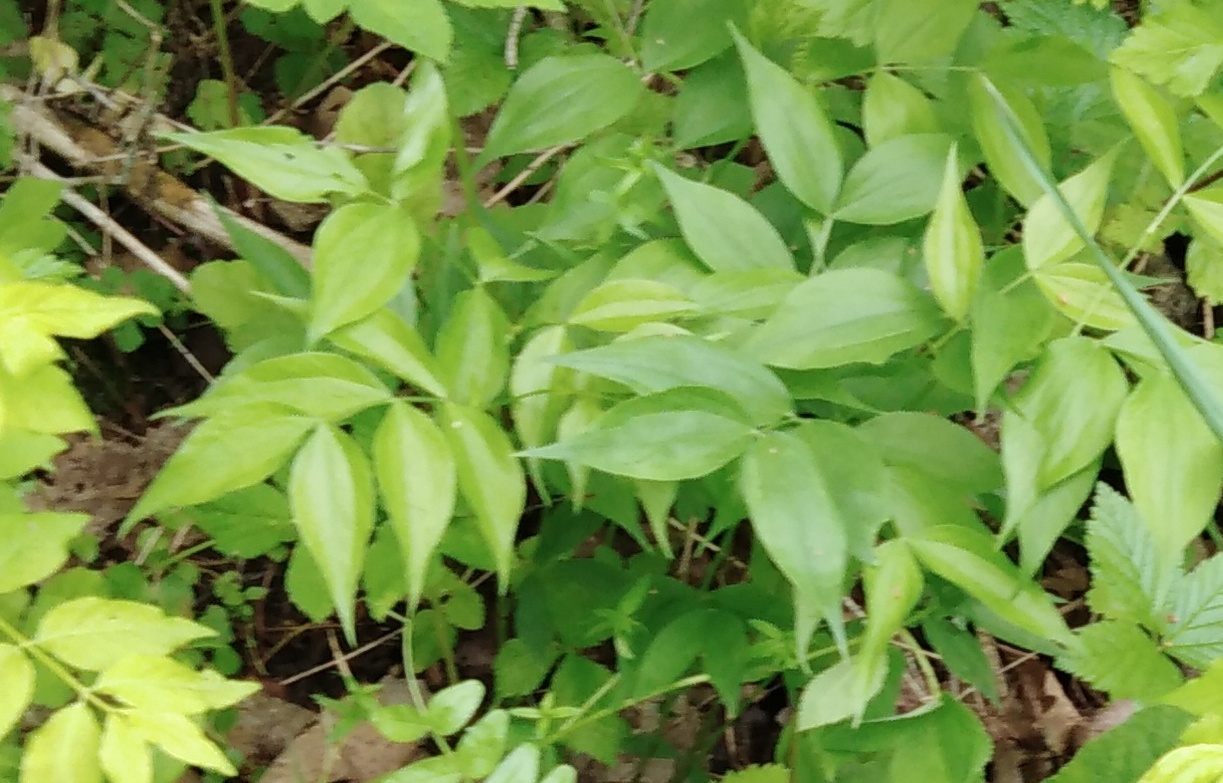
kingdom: Plantae
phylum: Tracheophyta
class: Magnoliopsida
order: Fabales
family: Fabaceae
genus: Lathyrus
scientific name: Lathyrus vernus
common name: Spring pea
